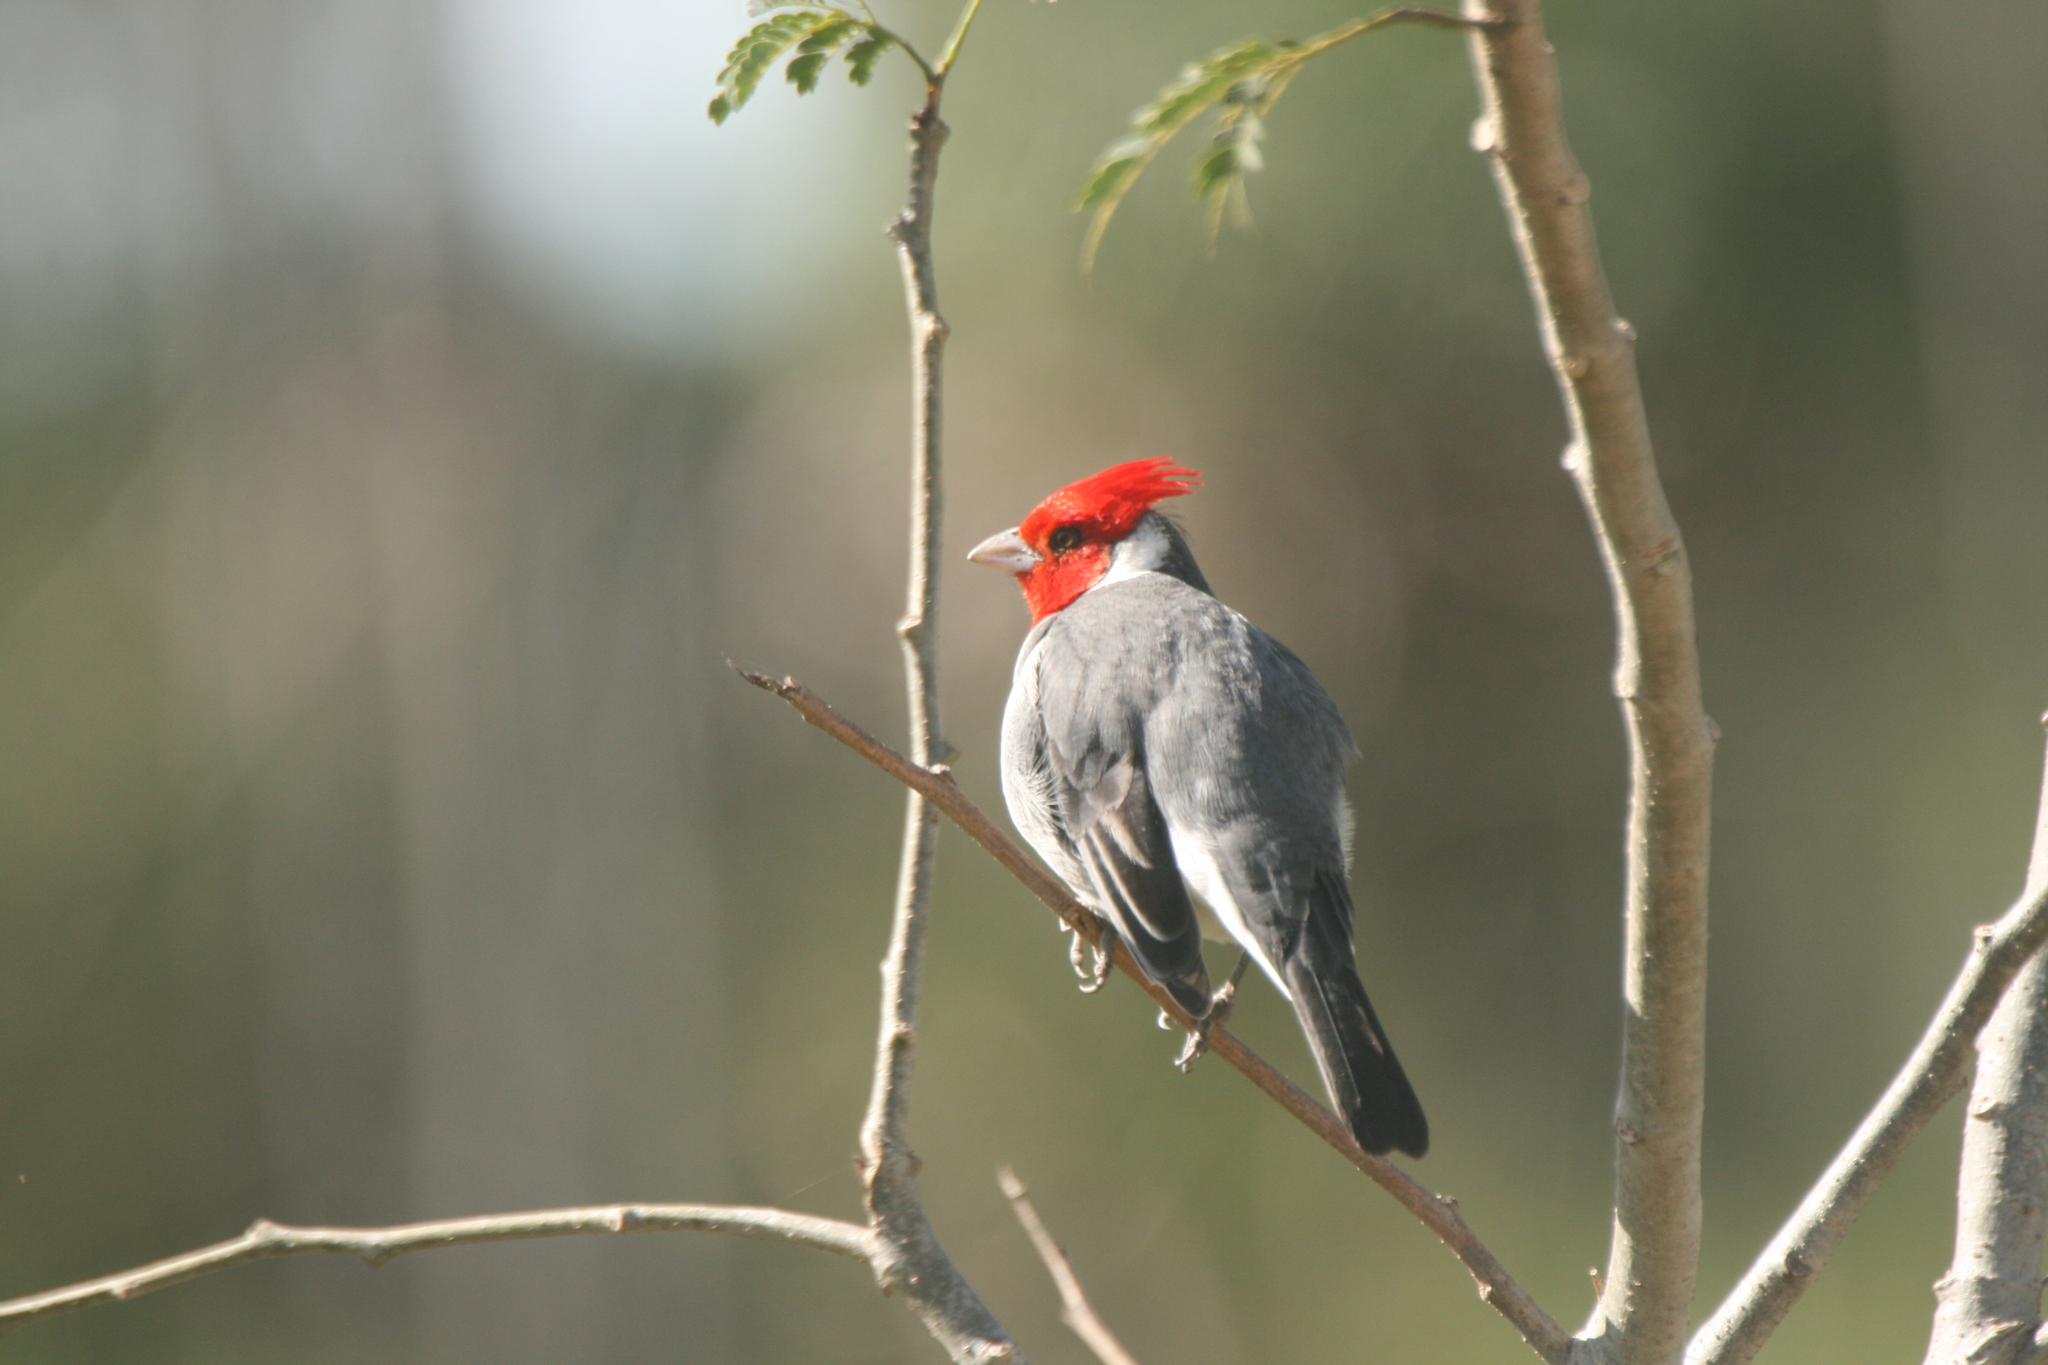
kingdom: Animalia
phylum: Chordata
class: Aves
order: Passeriformes
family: Thraupidae
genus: Paroaria
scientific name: Paroaria coronata
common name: Red-crested cardinal
